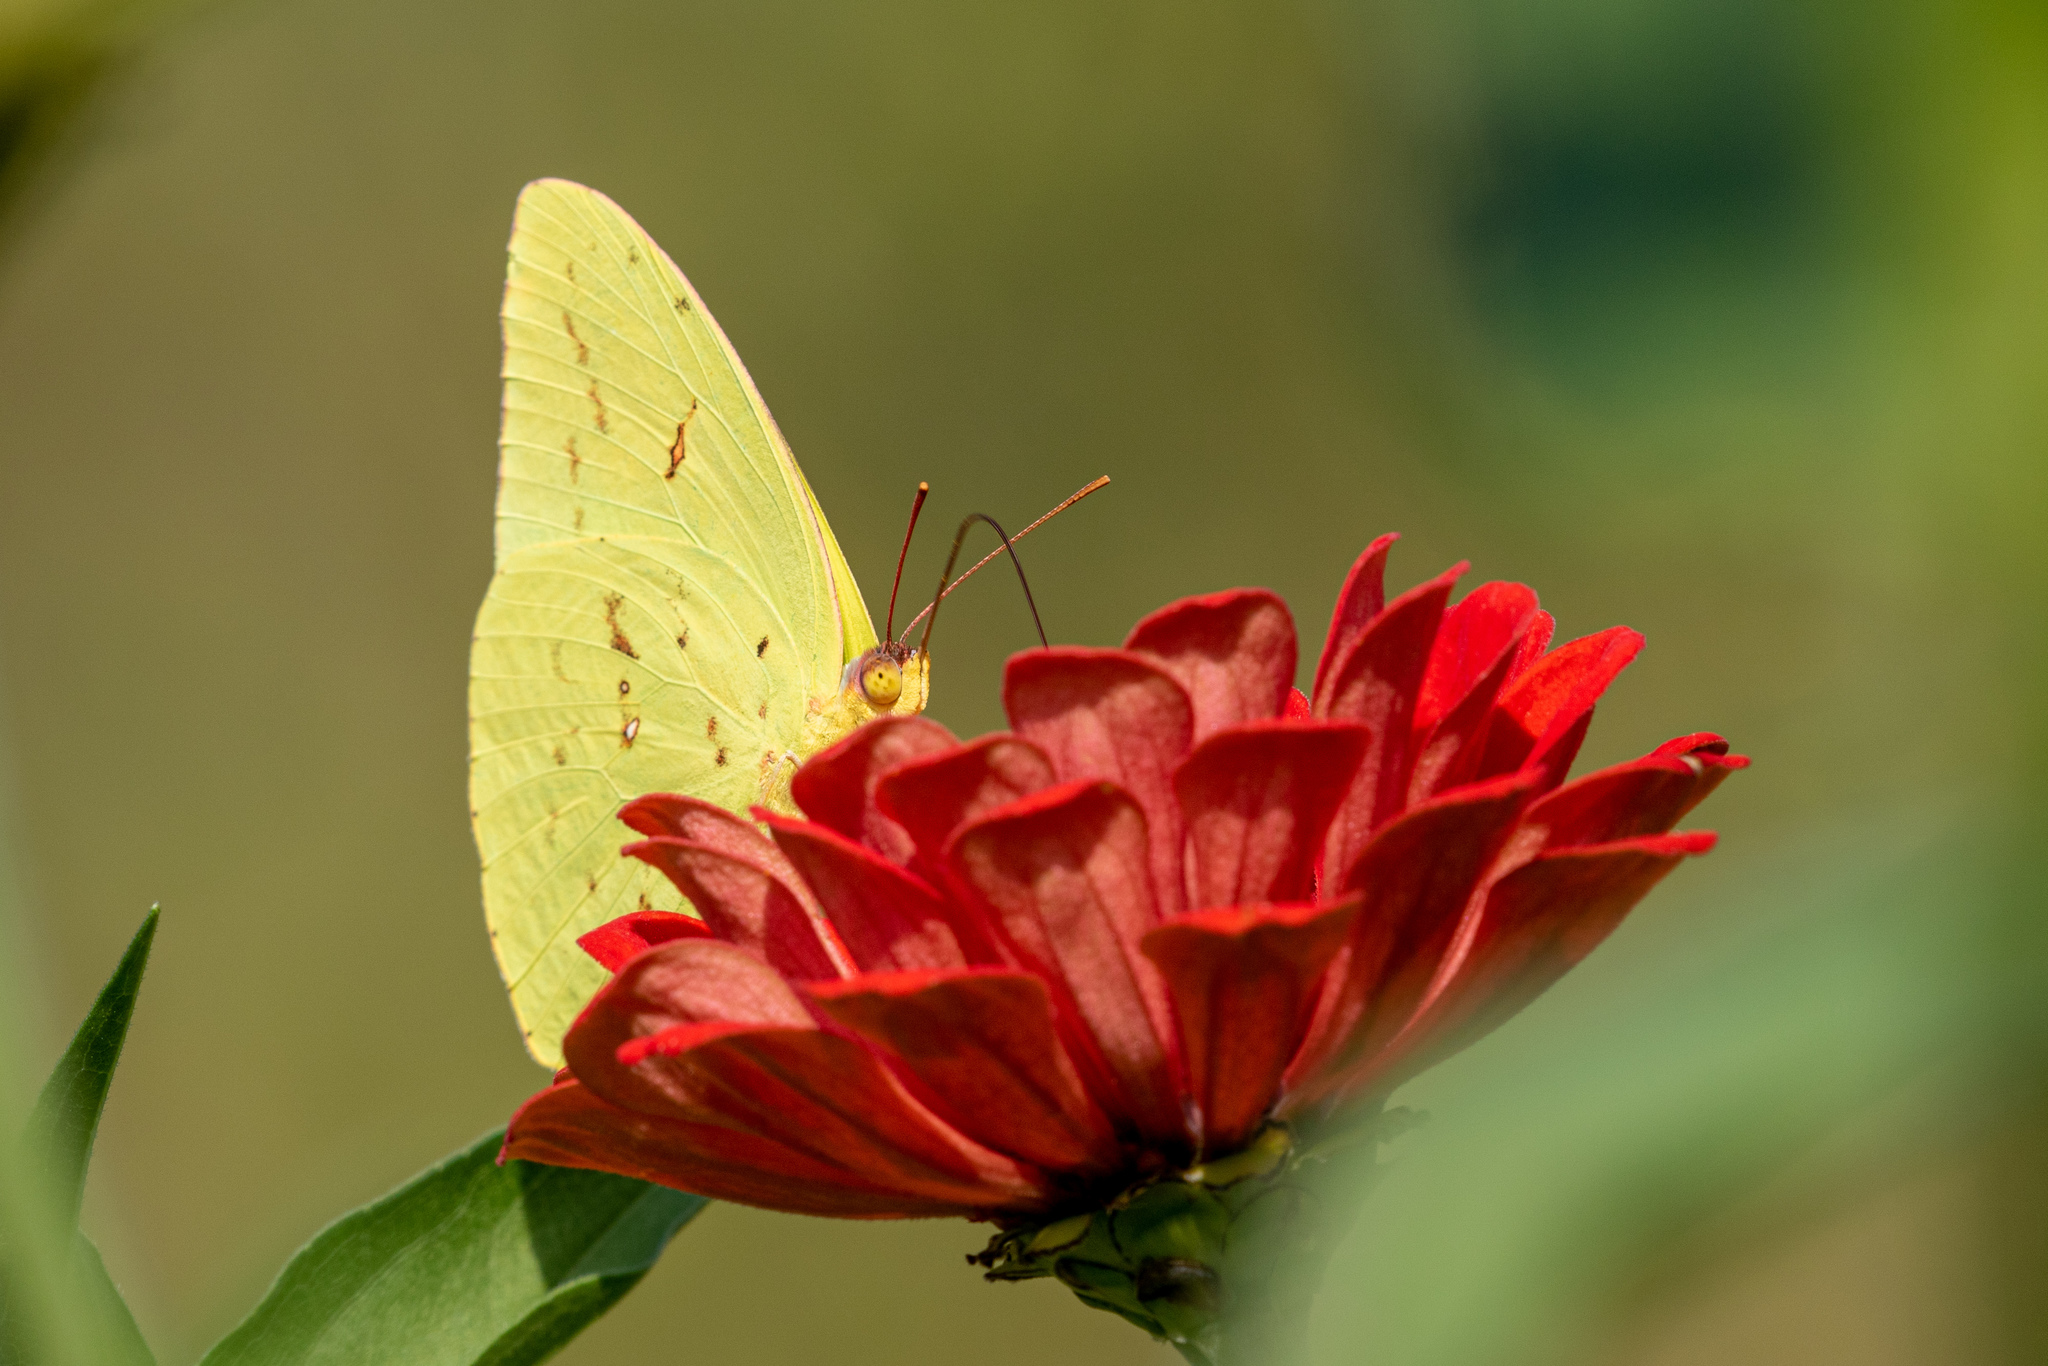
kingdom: Animalia
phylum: Arthropoda
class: Insecta
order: Lepidoptera
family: Pieridae
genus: Phoebis
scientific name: Phoebis sennae
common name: Cloudless sulphur
